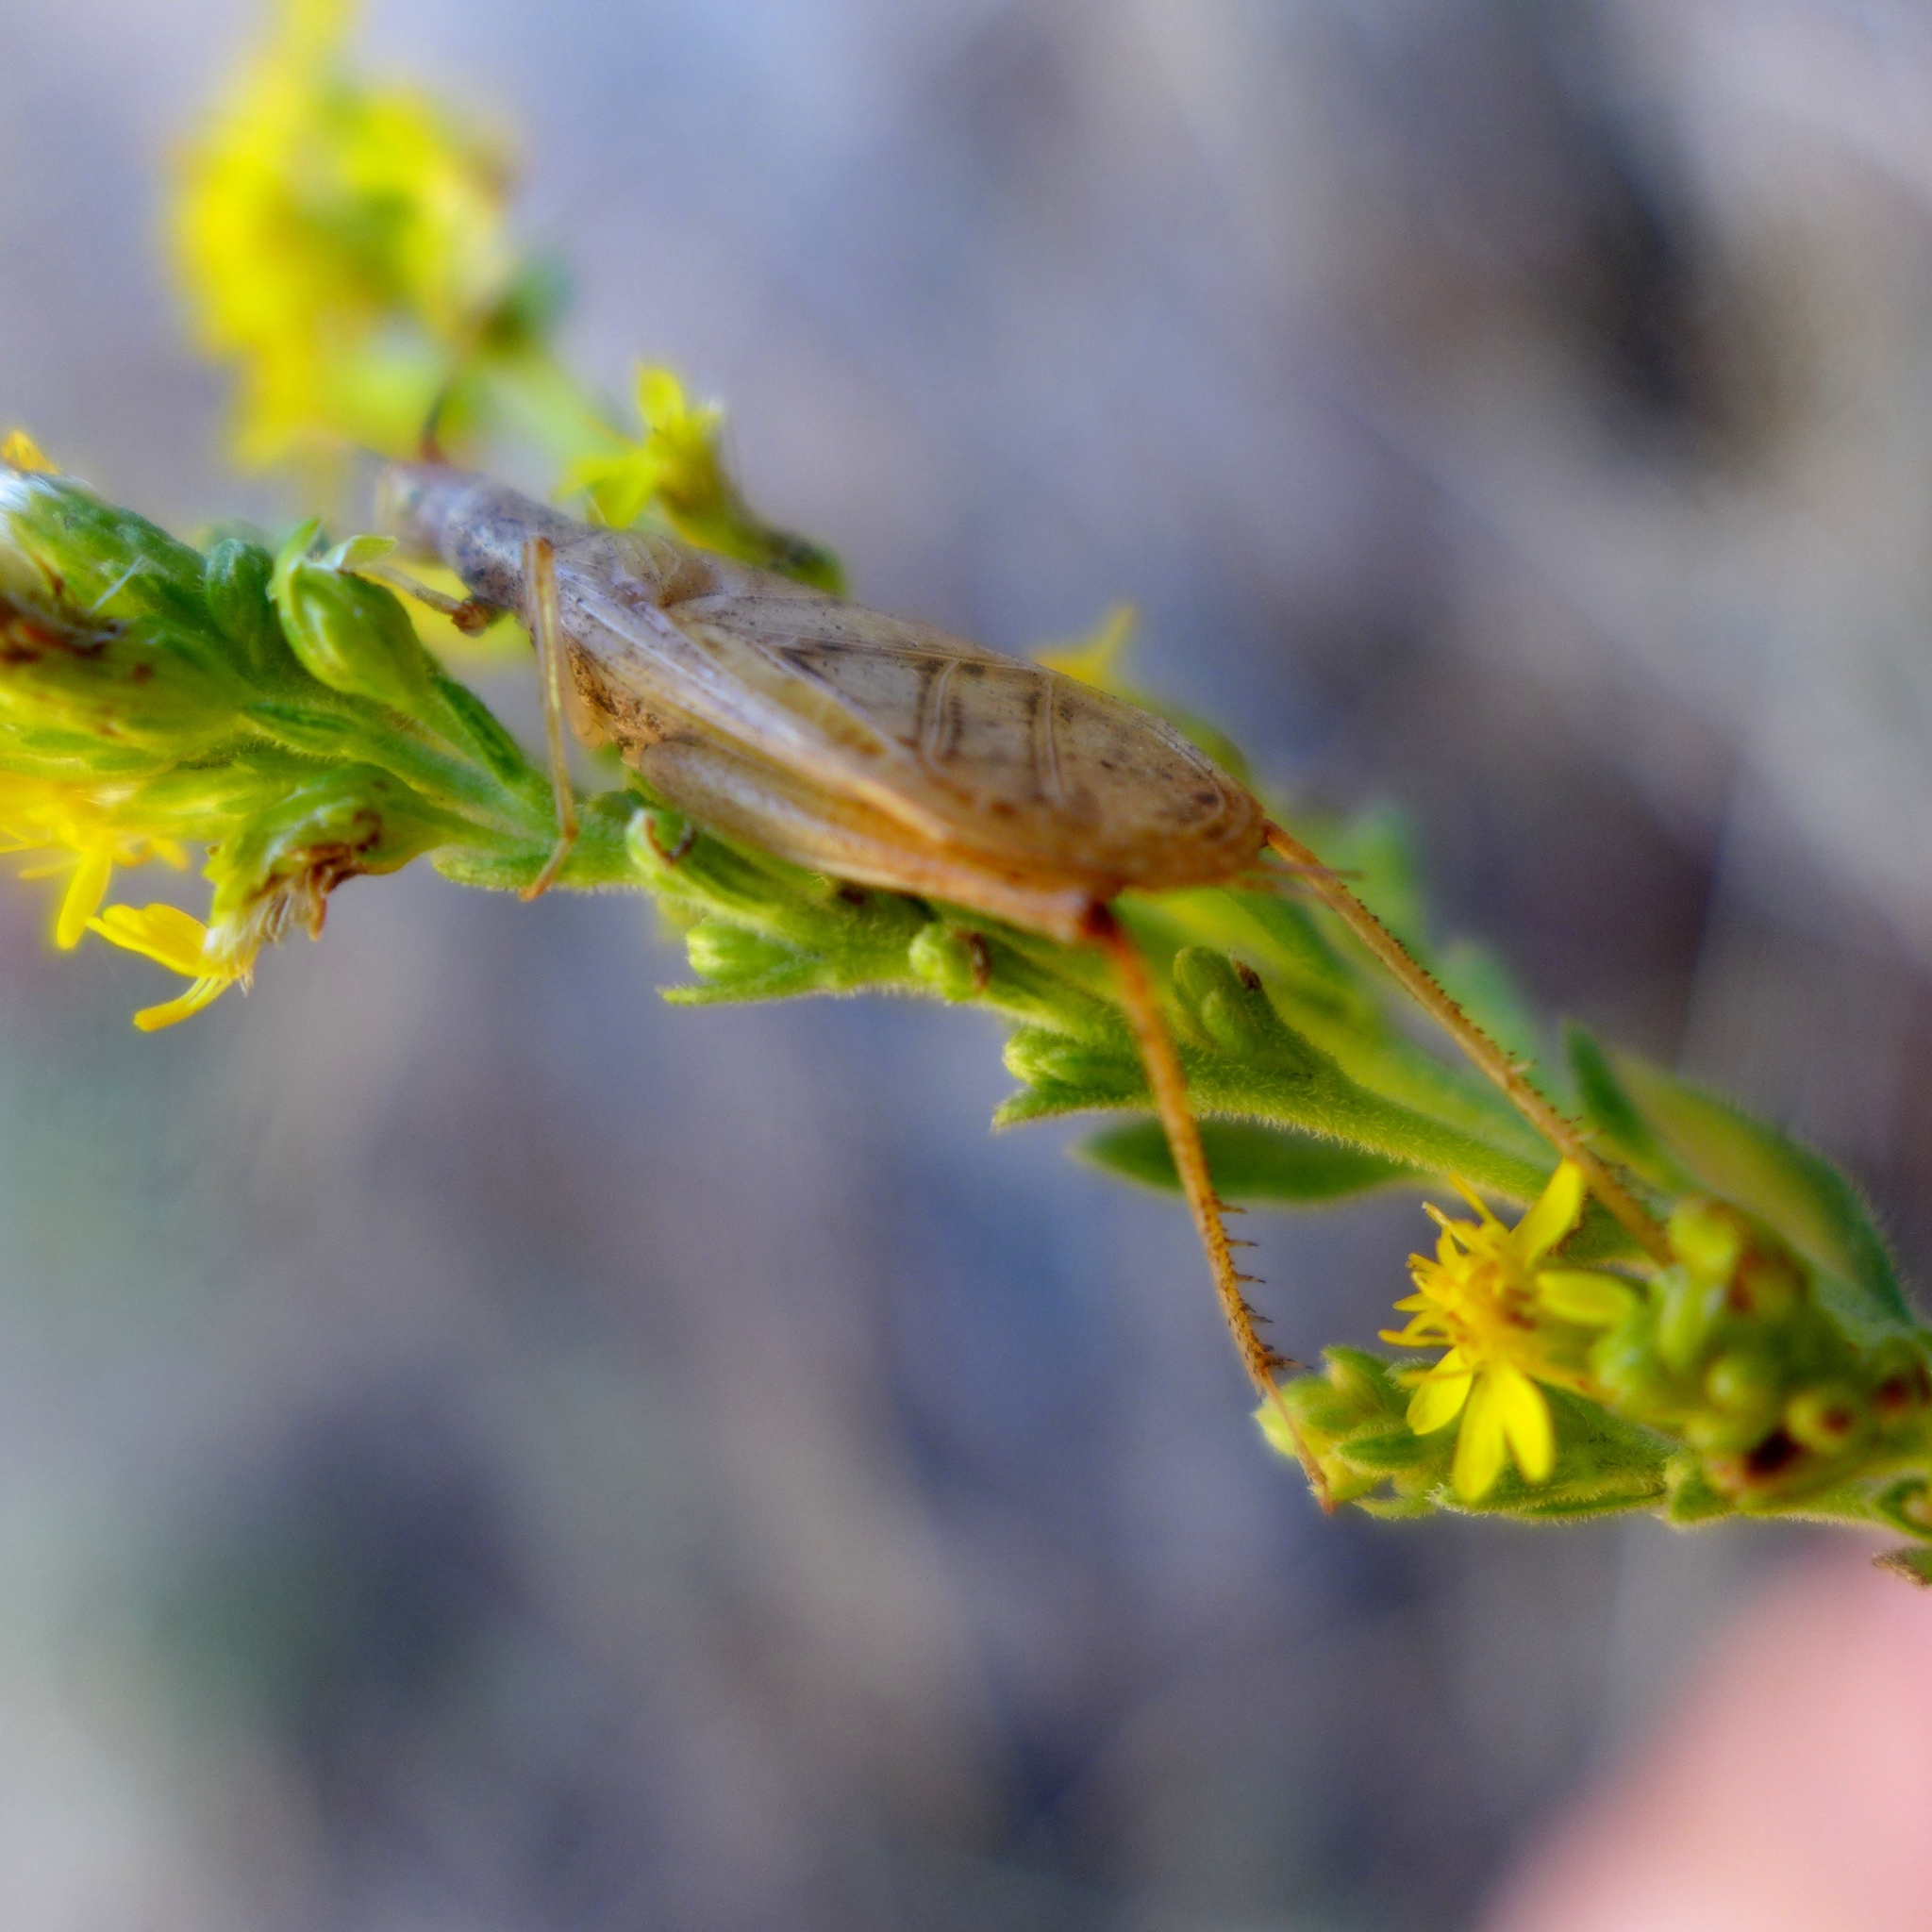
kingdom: Animalia
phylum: Arthropoda
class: Insecta
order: Orthoptera
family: Gryllidae
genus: Oecanthus
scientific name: Oecanthus californicus
